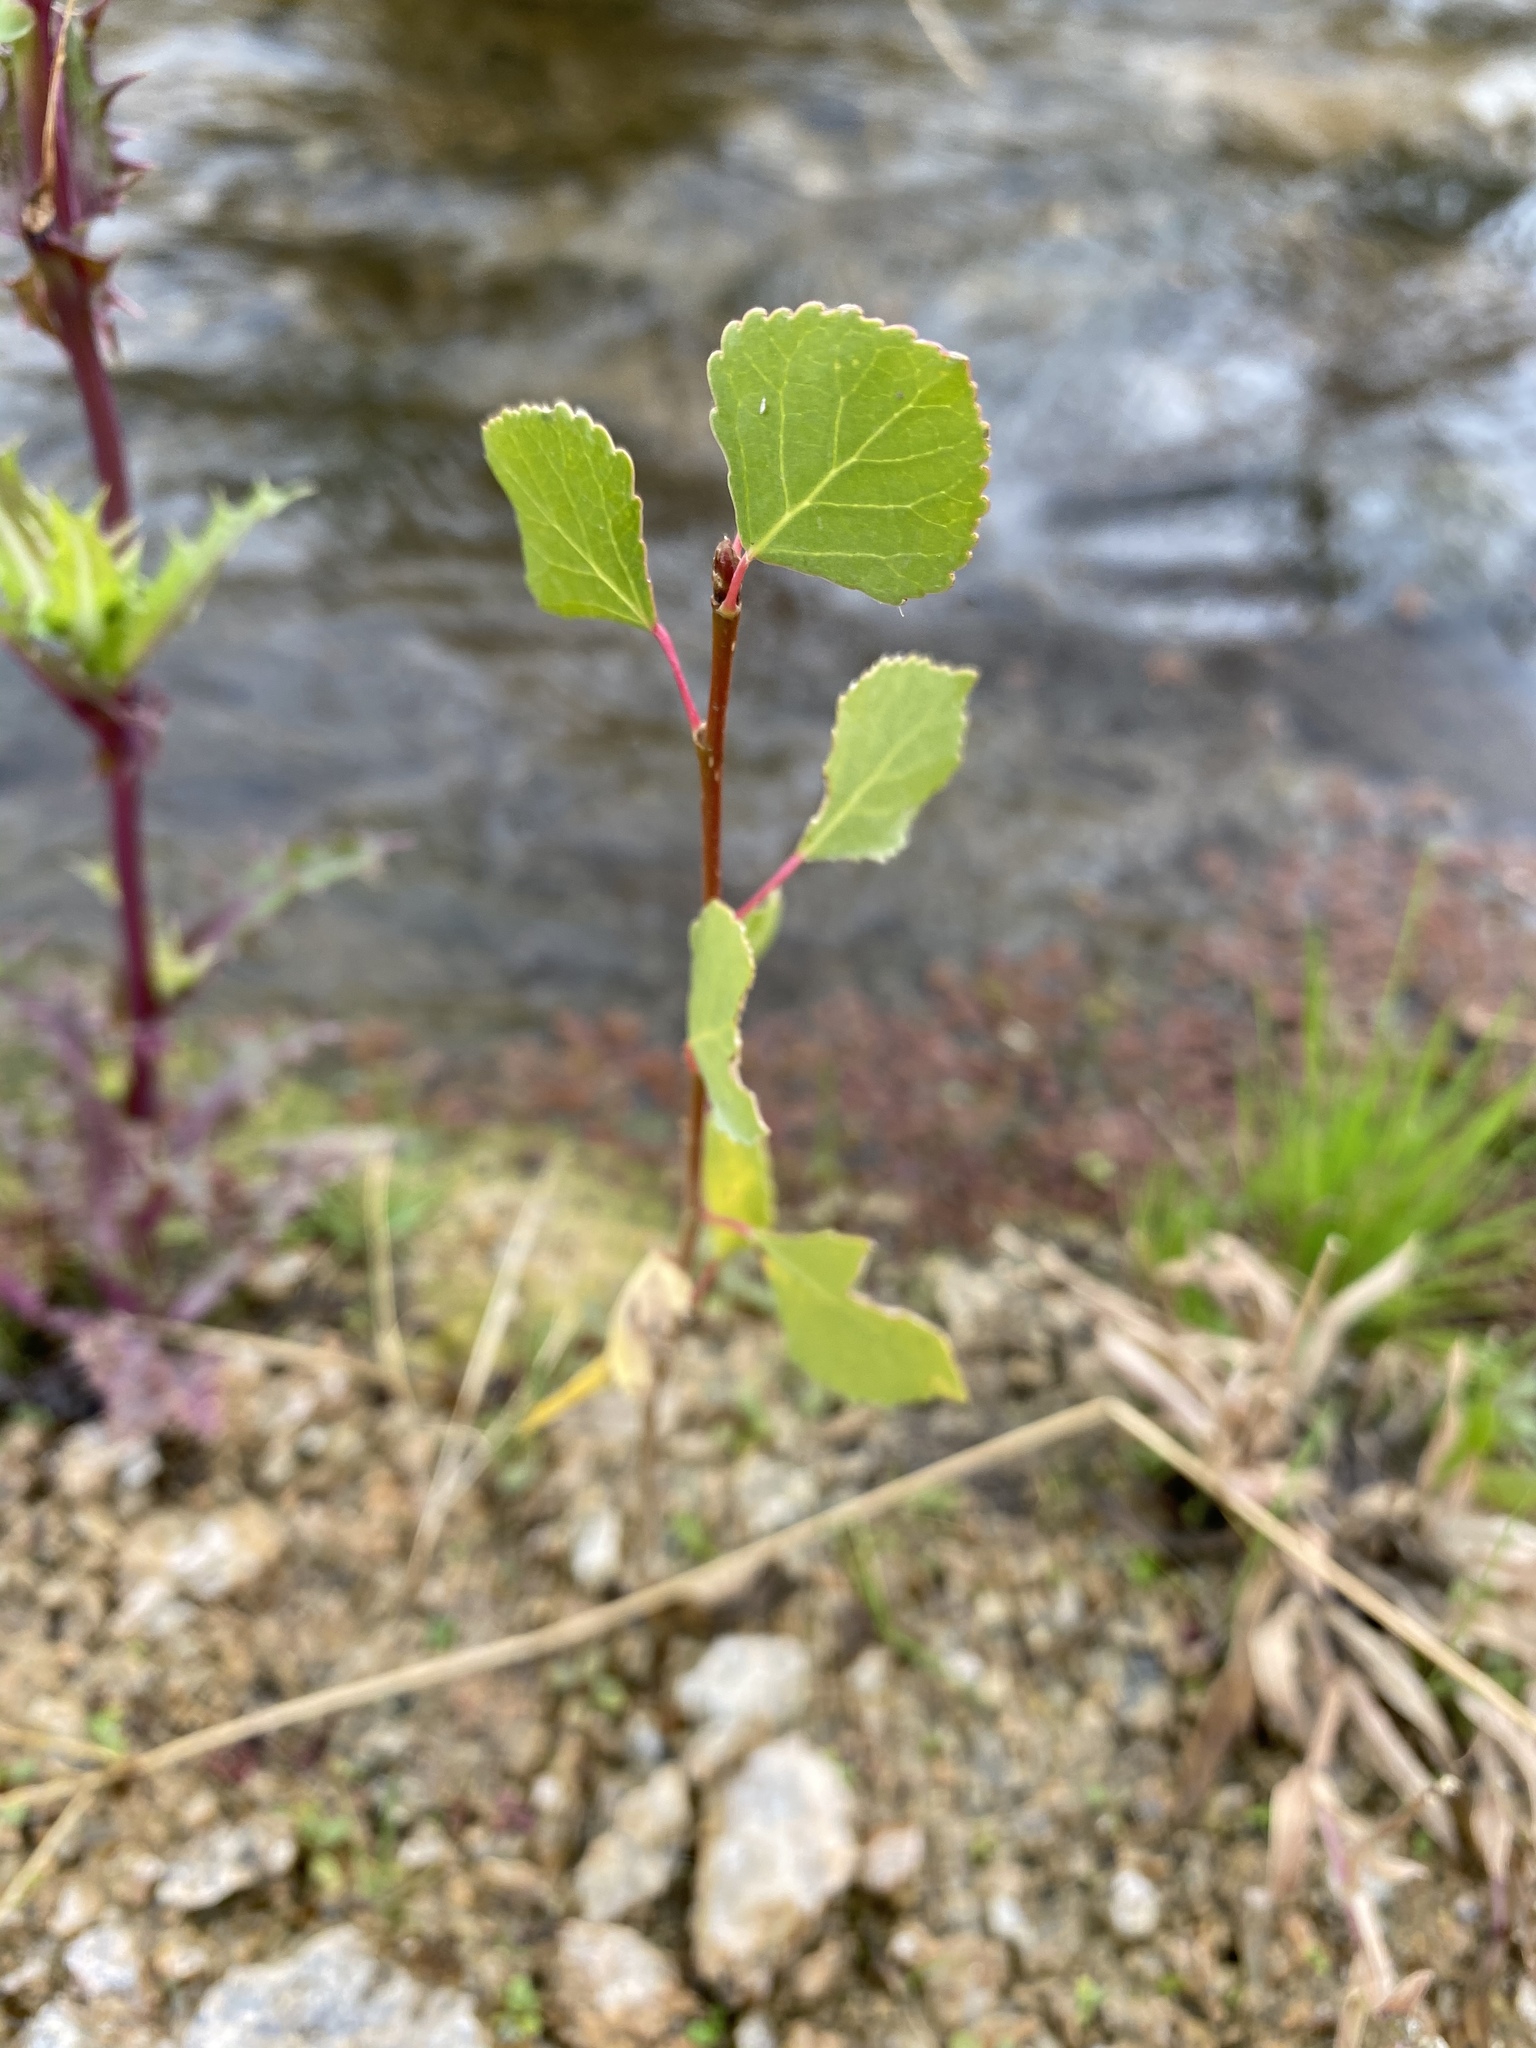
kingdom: Plantae
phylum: Tracheophyta
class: Magnoliopsida
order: Malpighiales
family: Salicaceae
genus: Populus
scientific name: Populus fremontii
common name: Fremont's cottonwood
